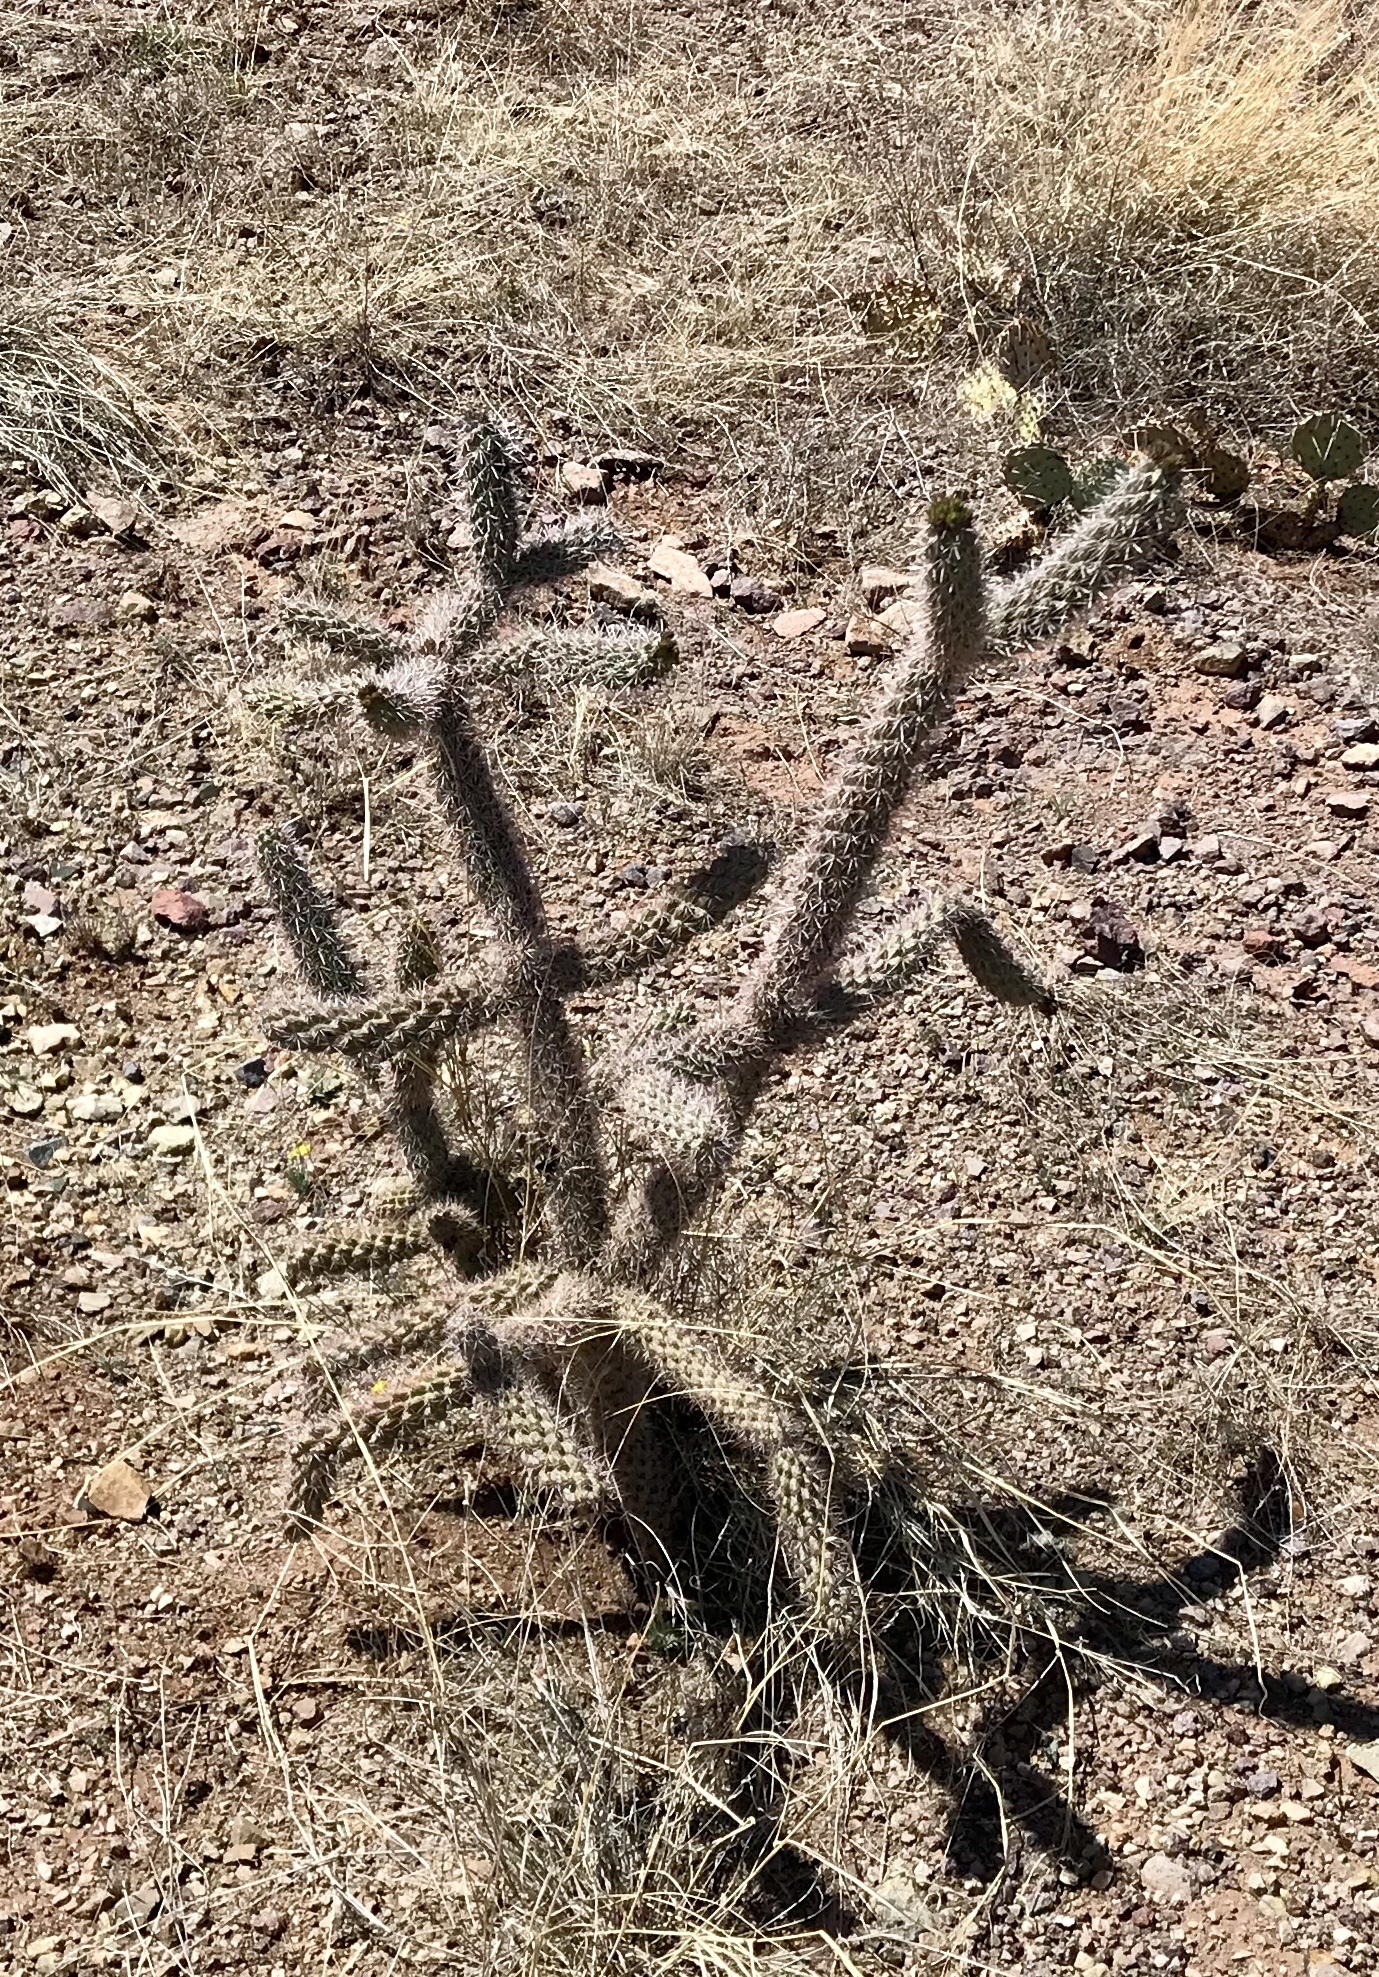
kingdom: Plantae
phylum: Tracheophyta
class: Magnoliopsida
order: Caryophyllales
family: Cactaceae
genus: Cylindropuntia
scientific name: Cylindropuntia imbricata
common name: Candelabrum cactus
